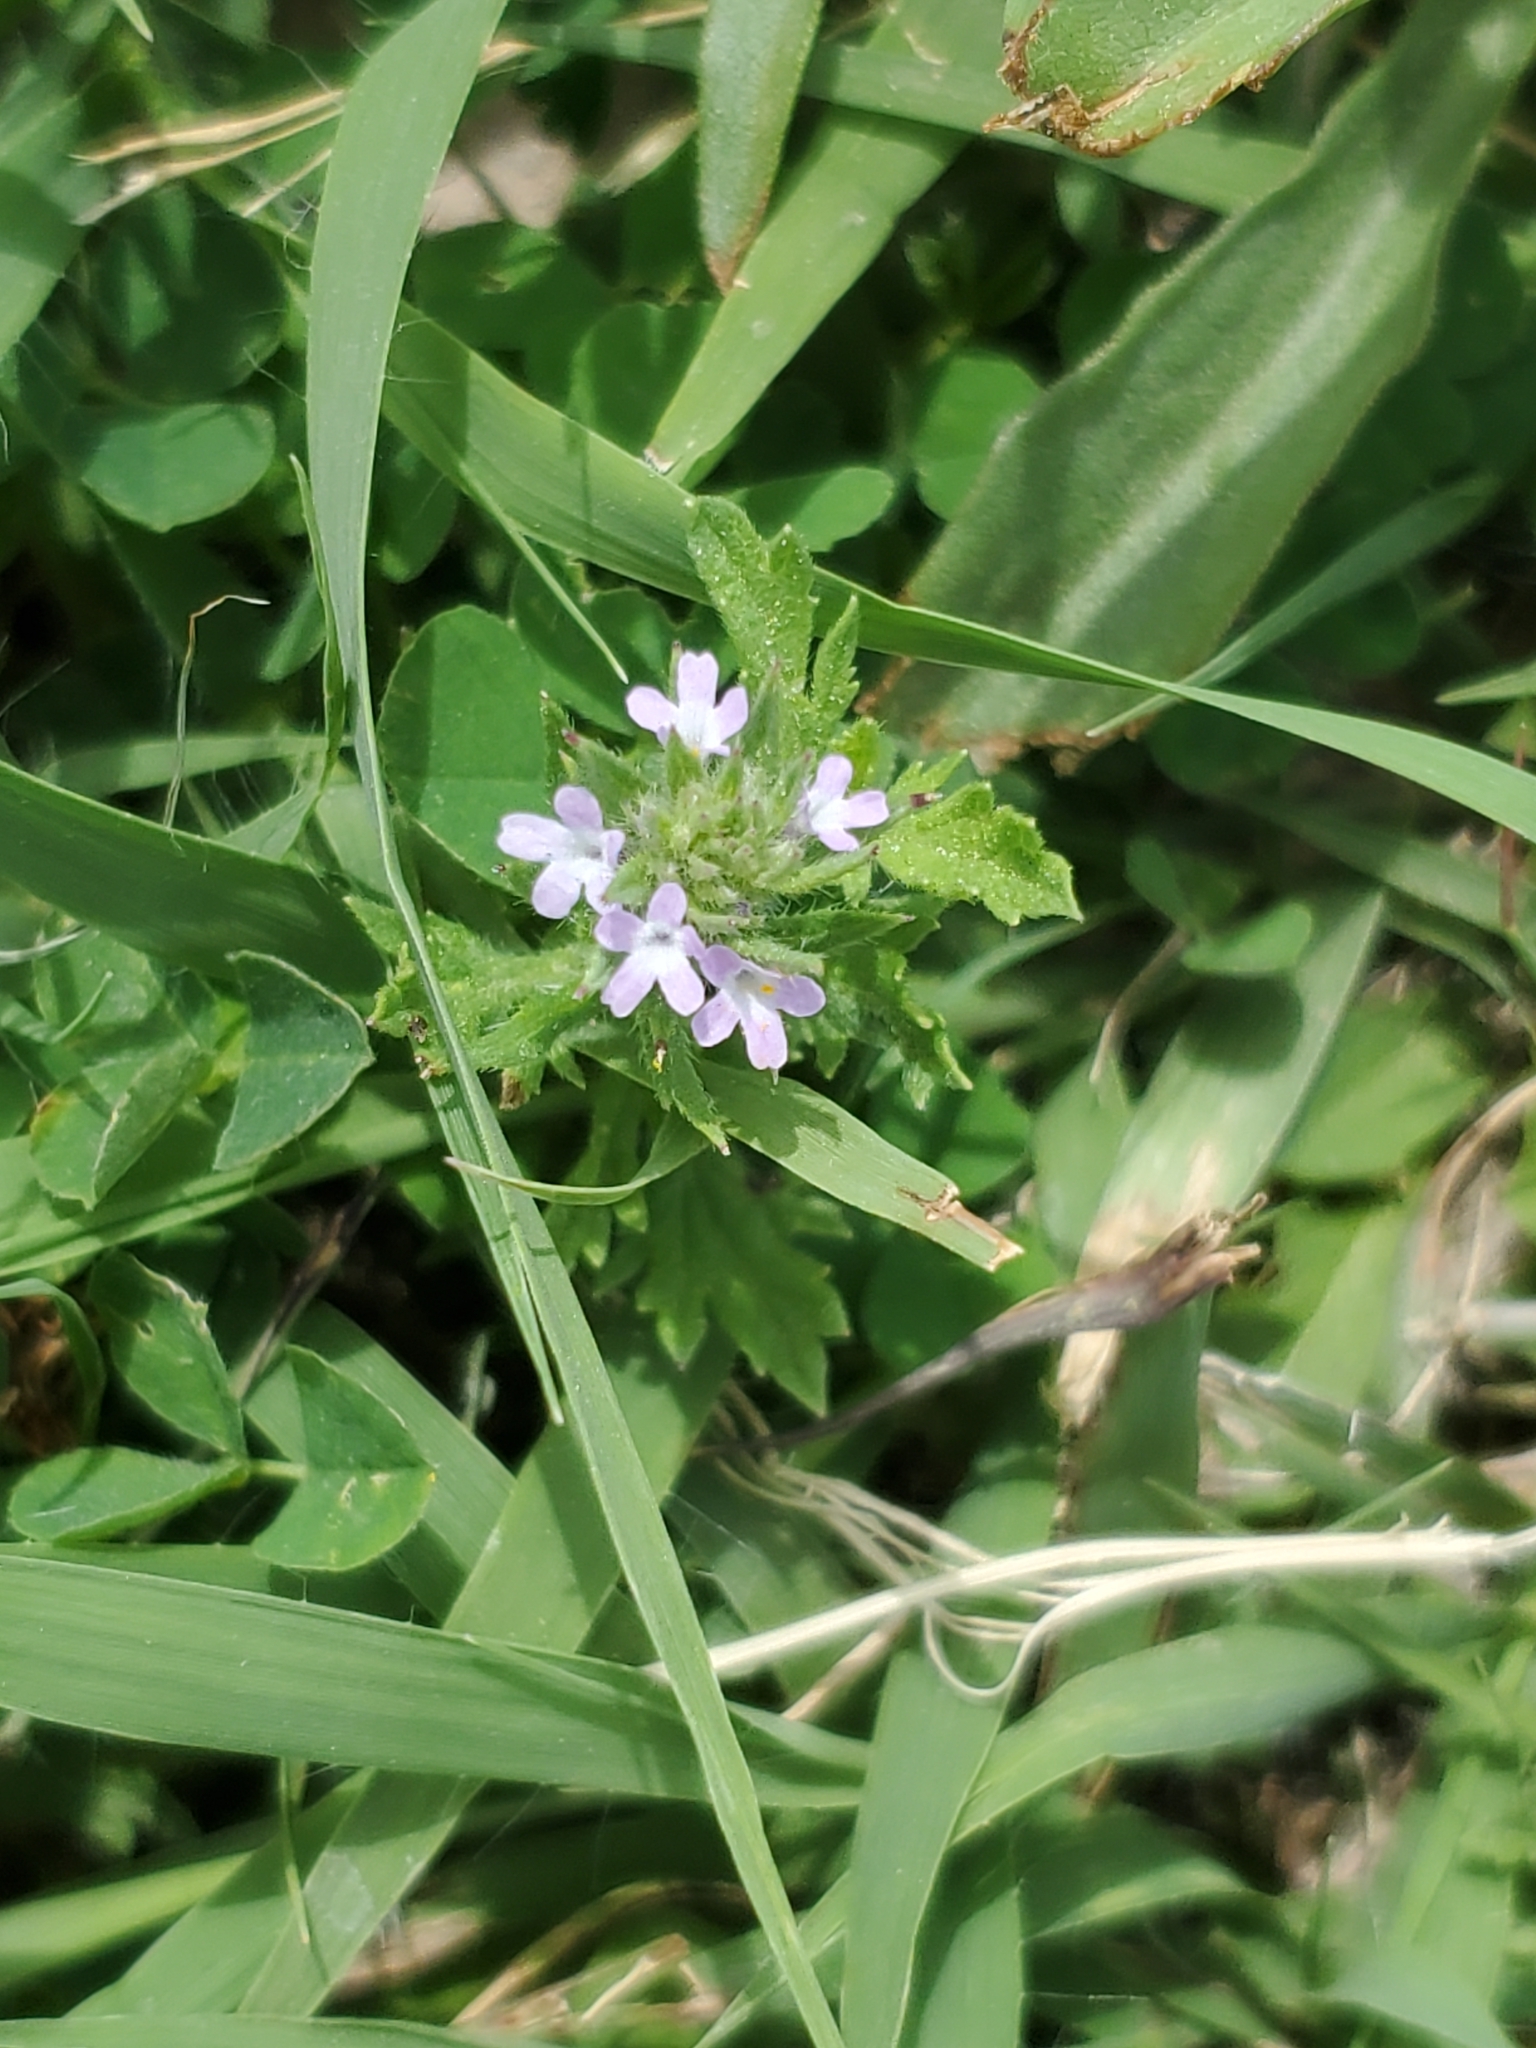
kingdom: Plantae
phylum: Tracheophyta
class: Magnoliopsida
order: Lamiales
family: Verbenaceae
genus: Verbena
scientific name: Verbena bracteata
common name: Bracted vervain
